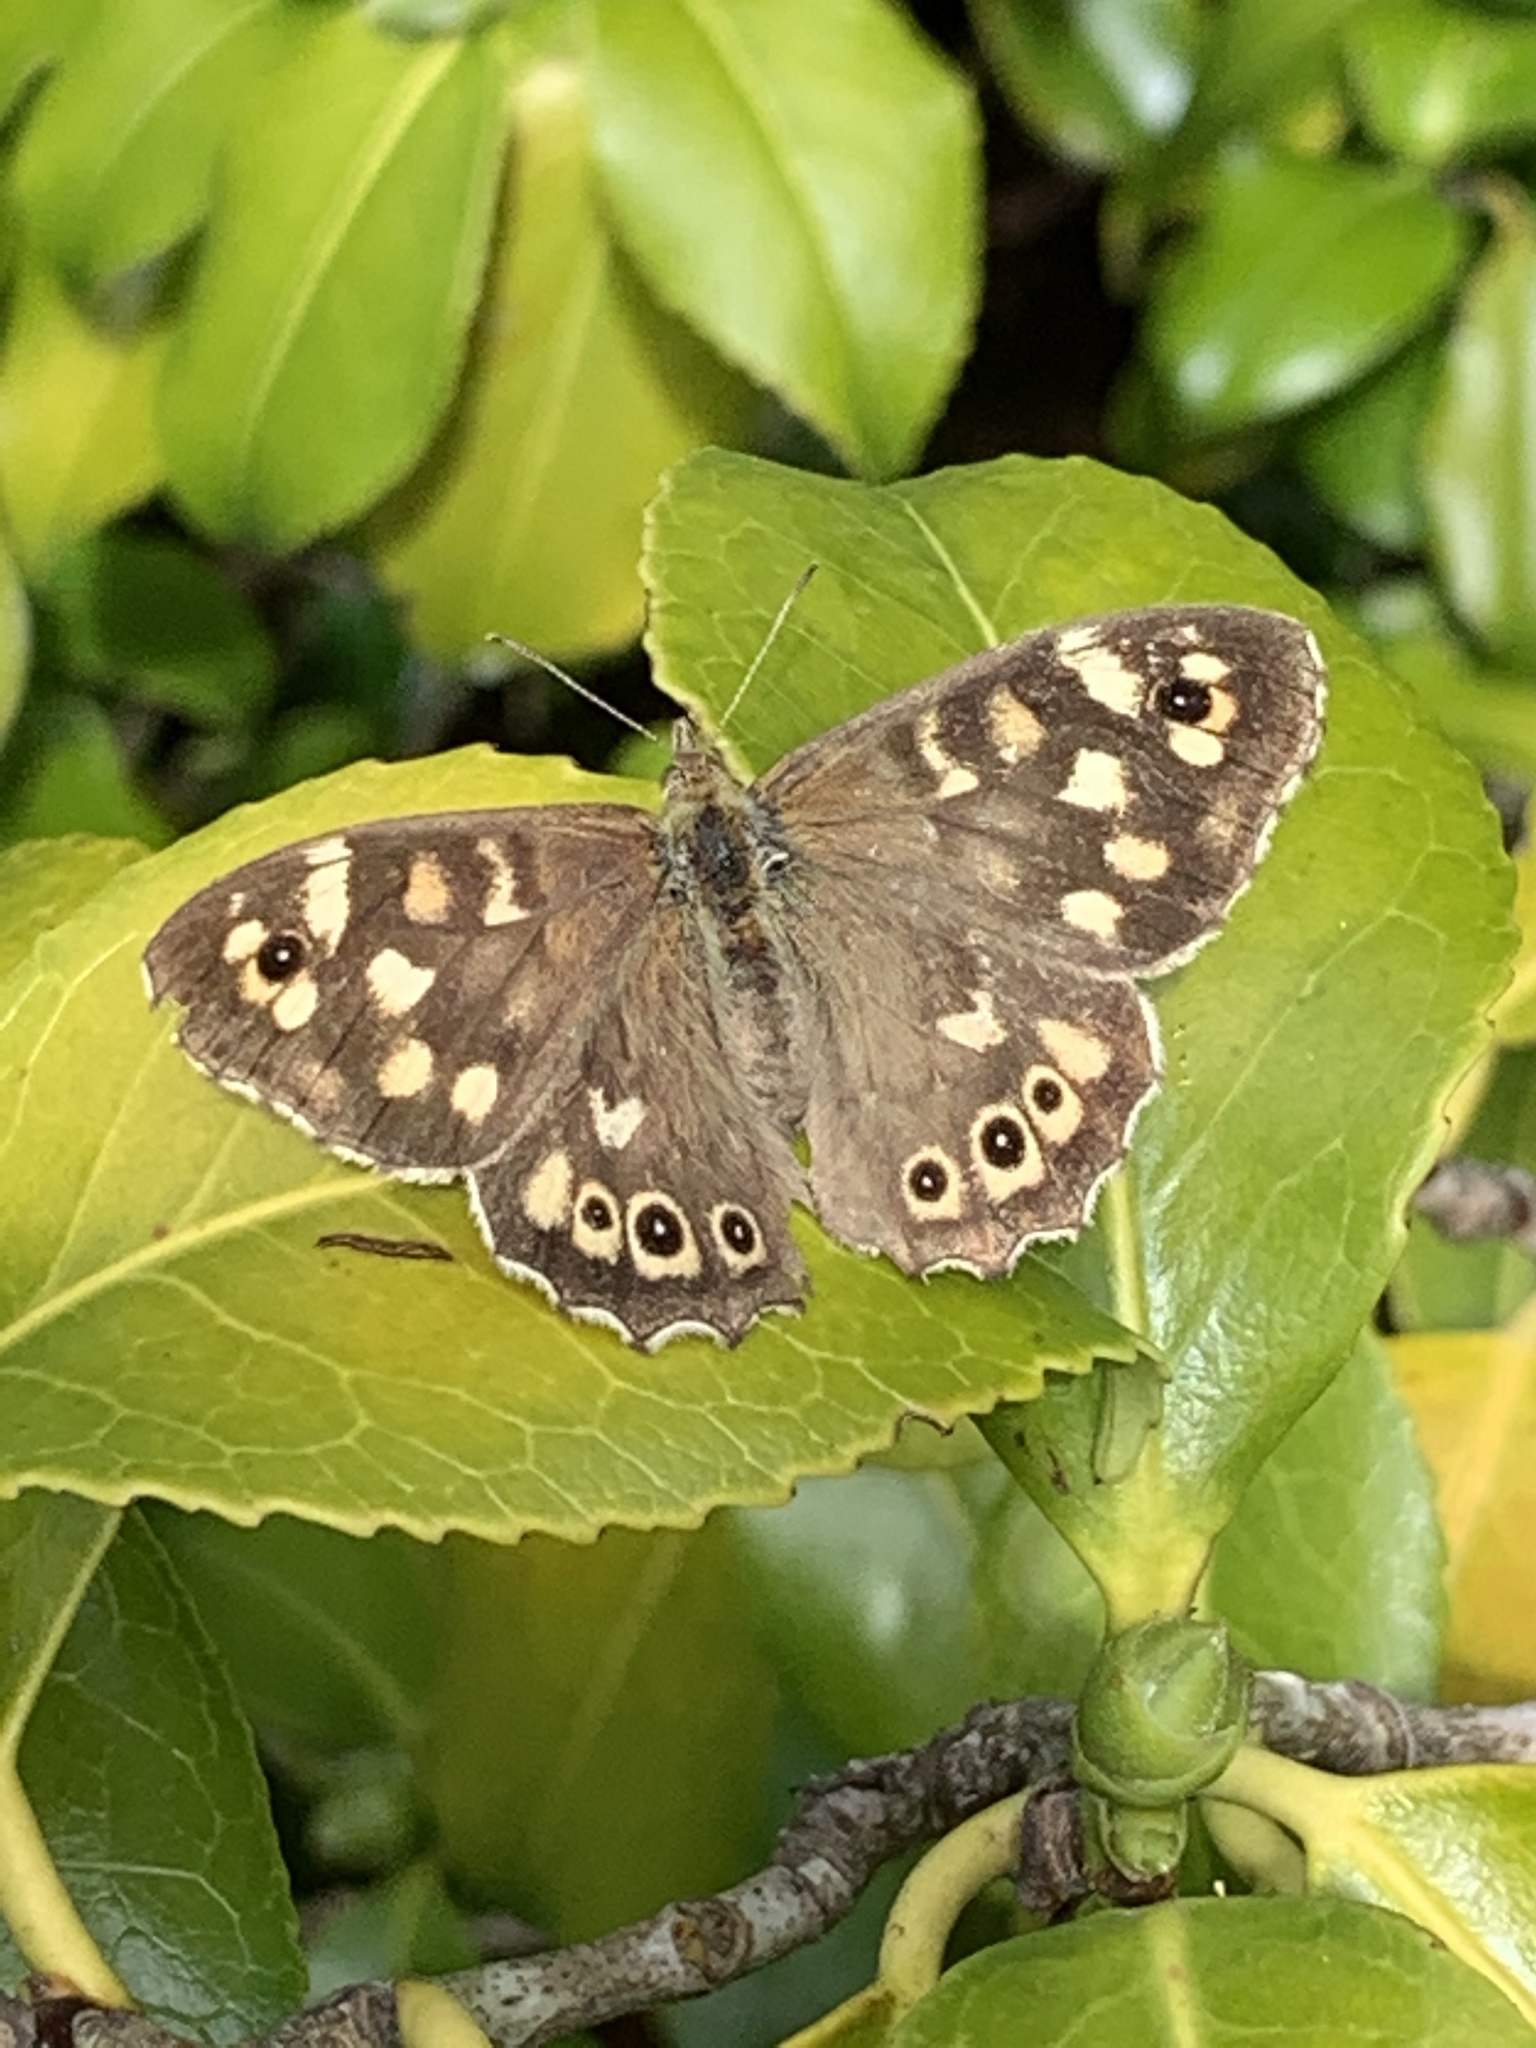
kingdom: Animalia
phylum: Arthropoda
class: Insecta
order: Lepidoptera
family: Nymphalidae
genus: Pararge
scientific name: Pararge aegeria
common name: Speckled wood
